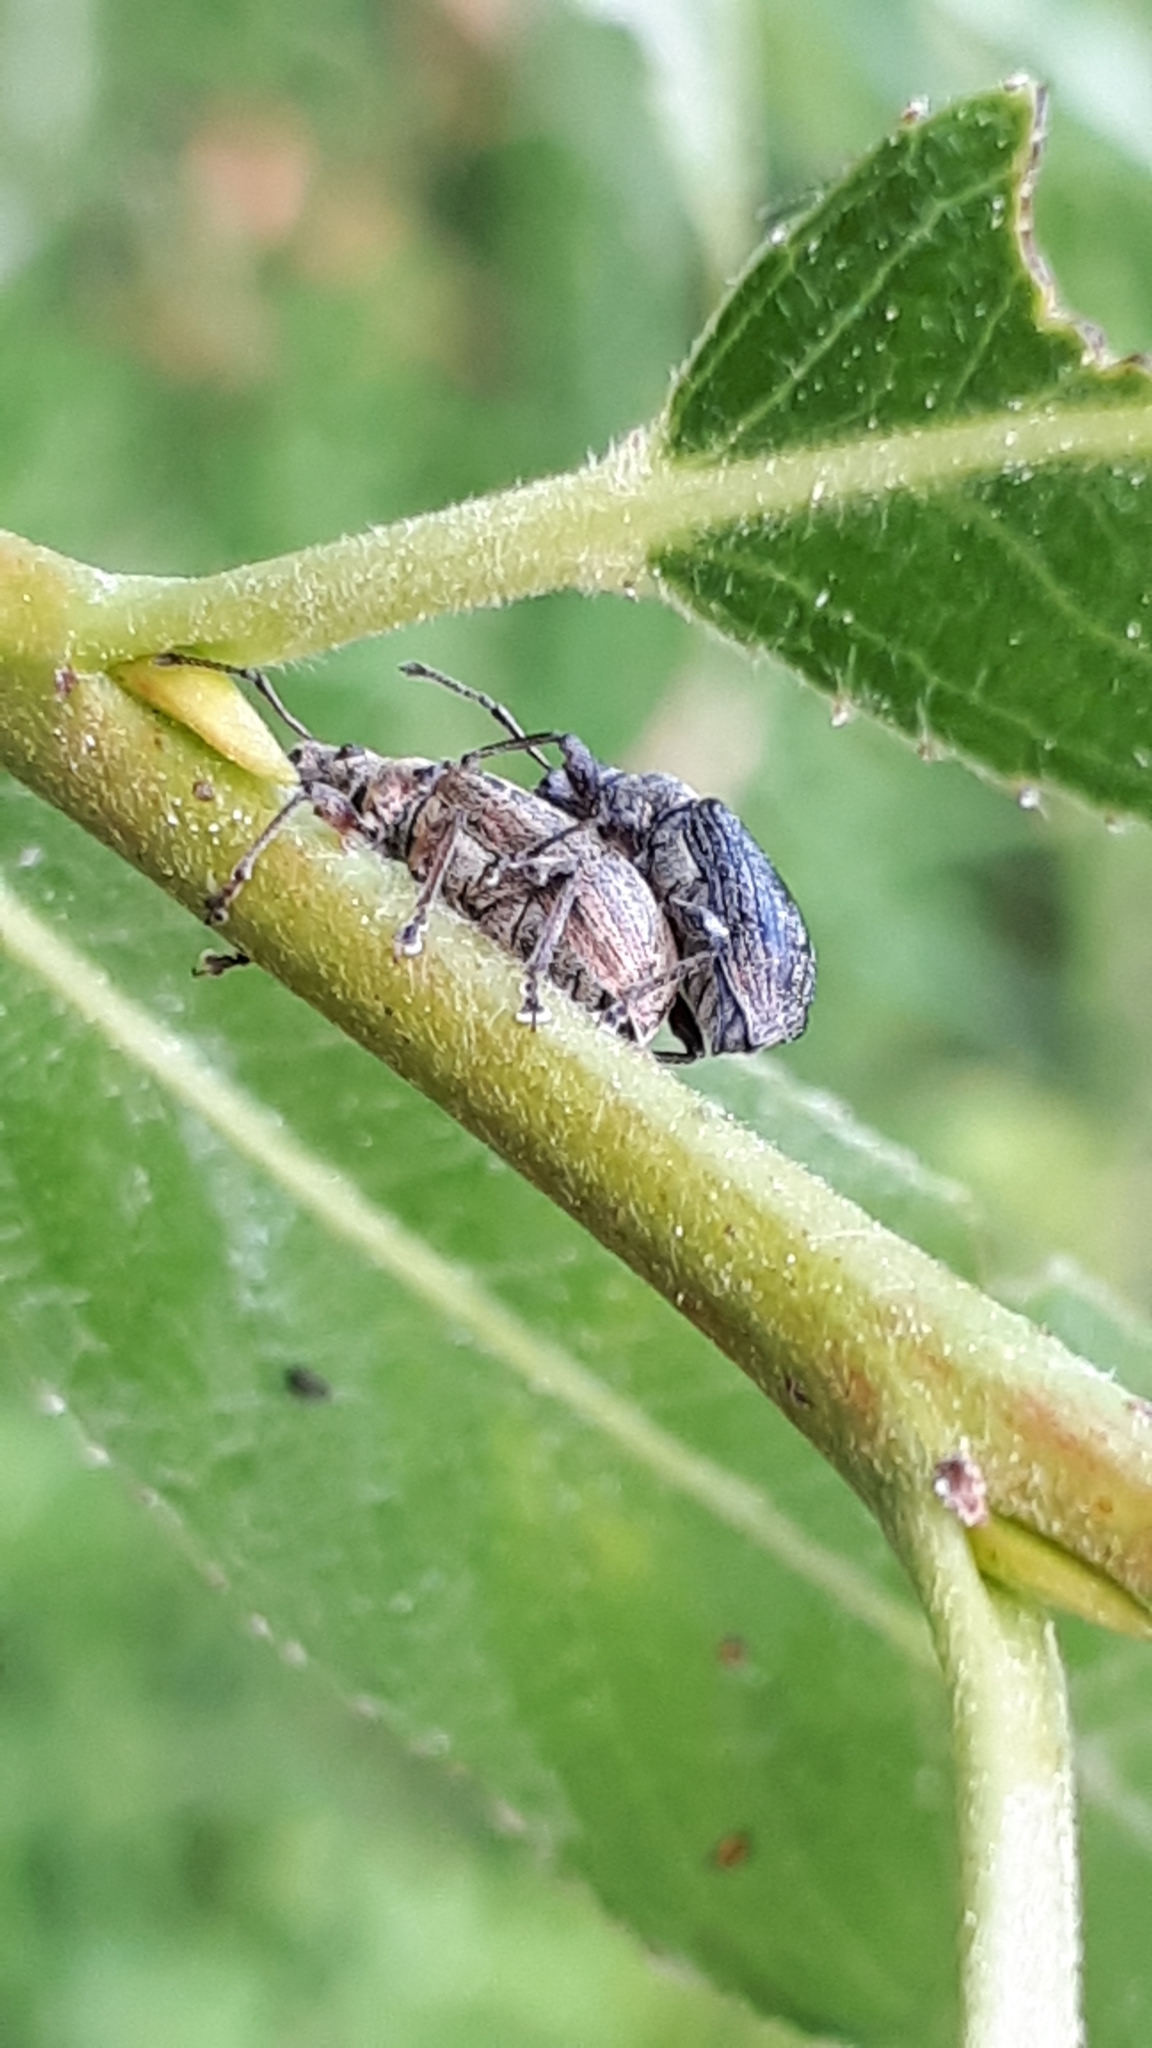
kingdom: Animalia
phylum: Arthropoda
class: Insecta
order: Coleoptera
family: Curculionidae
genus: Phyllobius
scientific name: Phyllobius pyri
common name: Common leaf weevil
